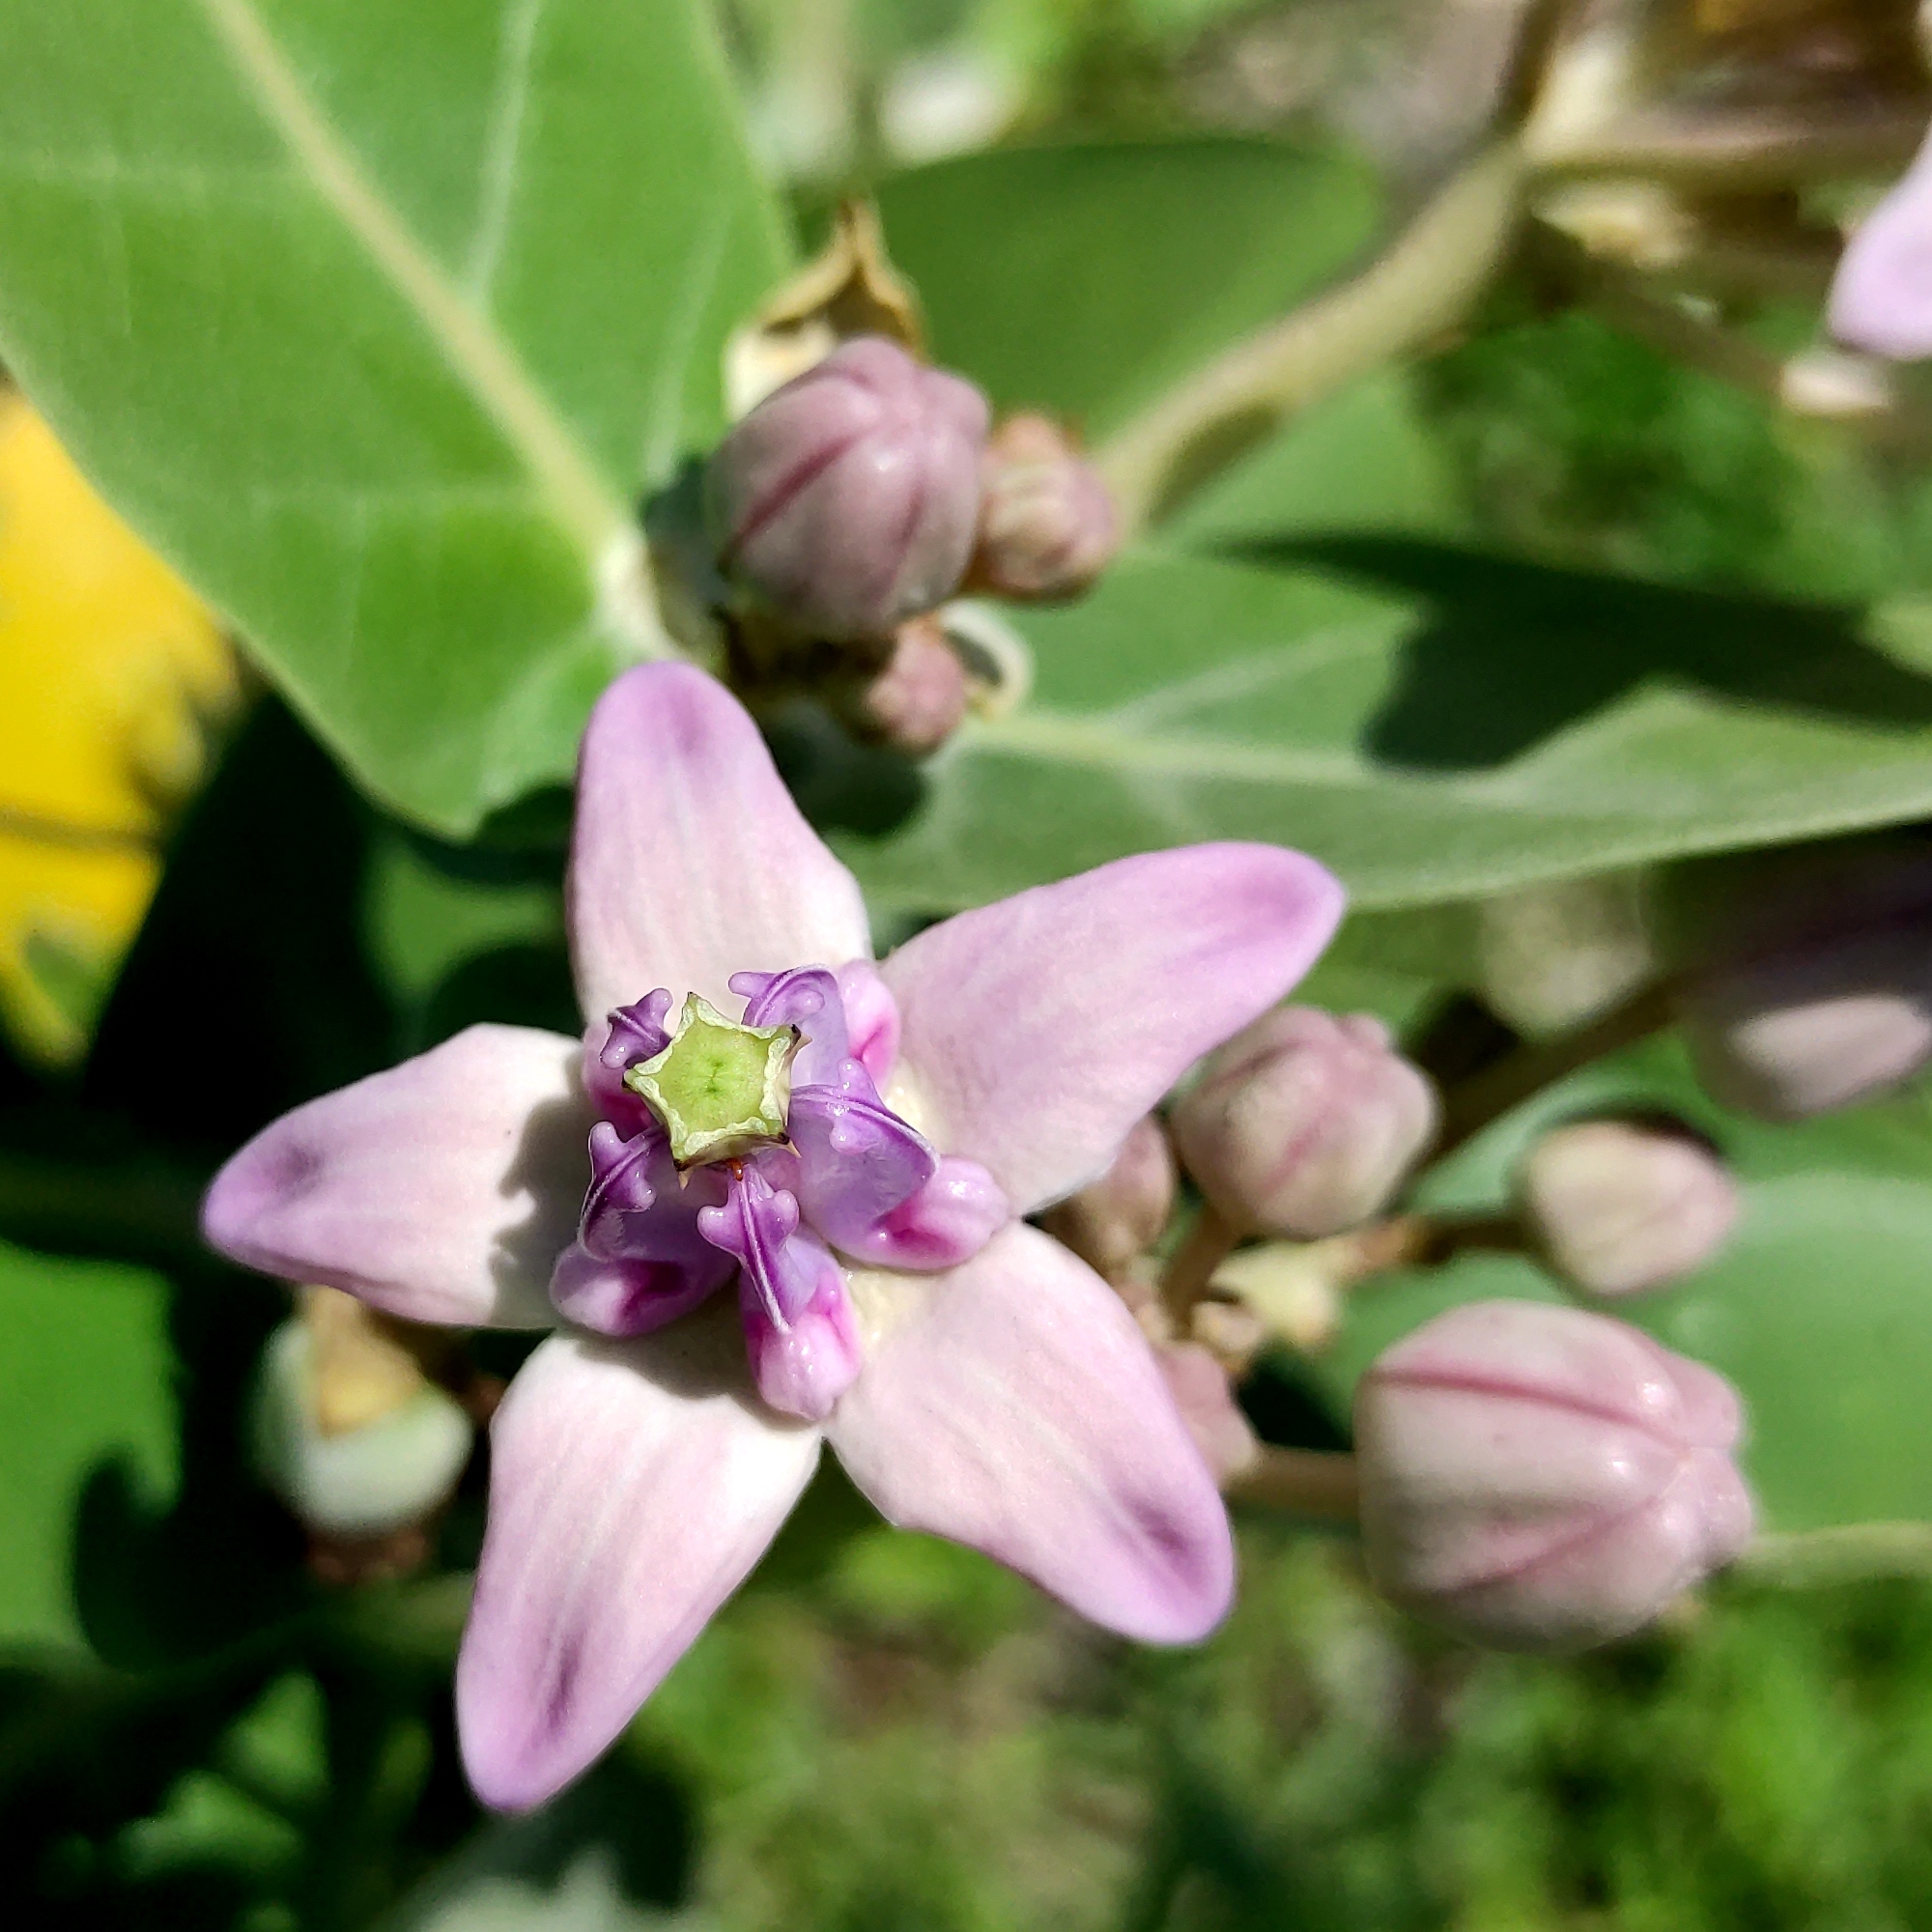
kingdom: Plantae
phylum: Tracheophyta
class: Magnoliopsida
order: Gentianales
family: Apocynaceae
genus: Calotropis
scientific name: Calotropis gigantea
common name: Crown flower
